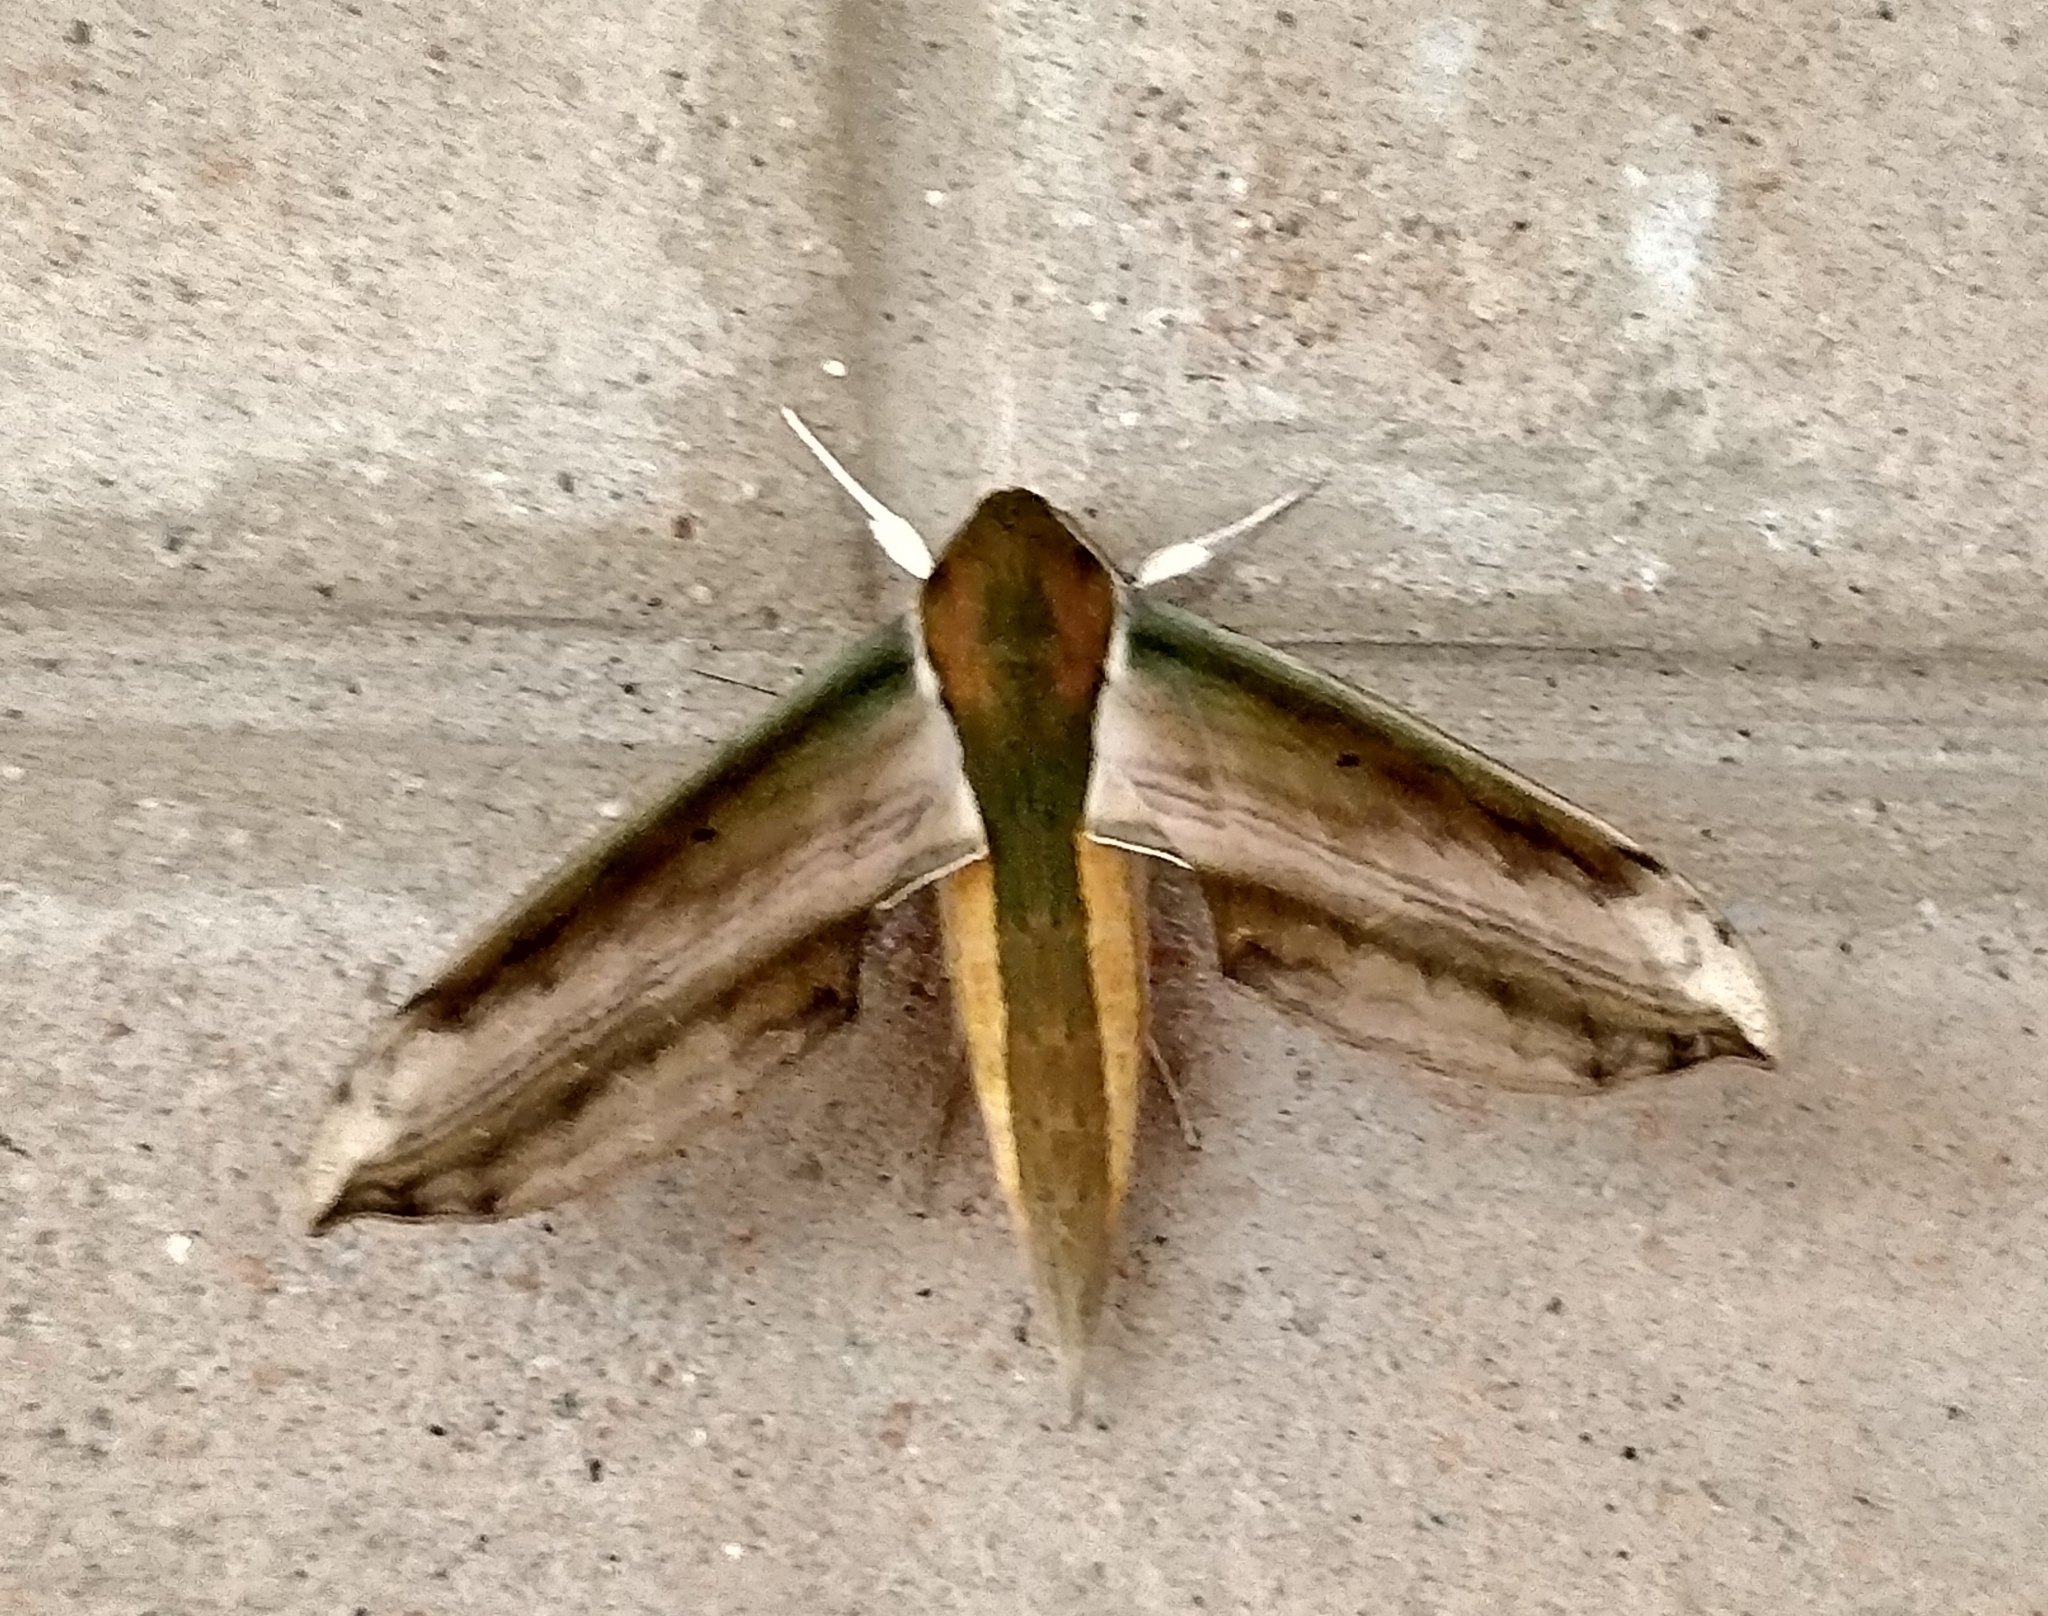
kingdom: Animalia
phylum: Arthropoda
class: Insecta
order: Lepidoptera
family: Sphingidae
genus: Theretra
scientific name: Theretra nessus
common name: Yam hawk moth
